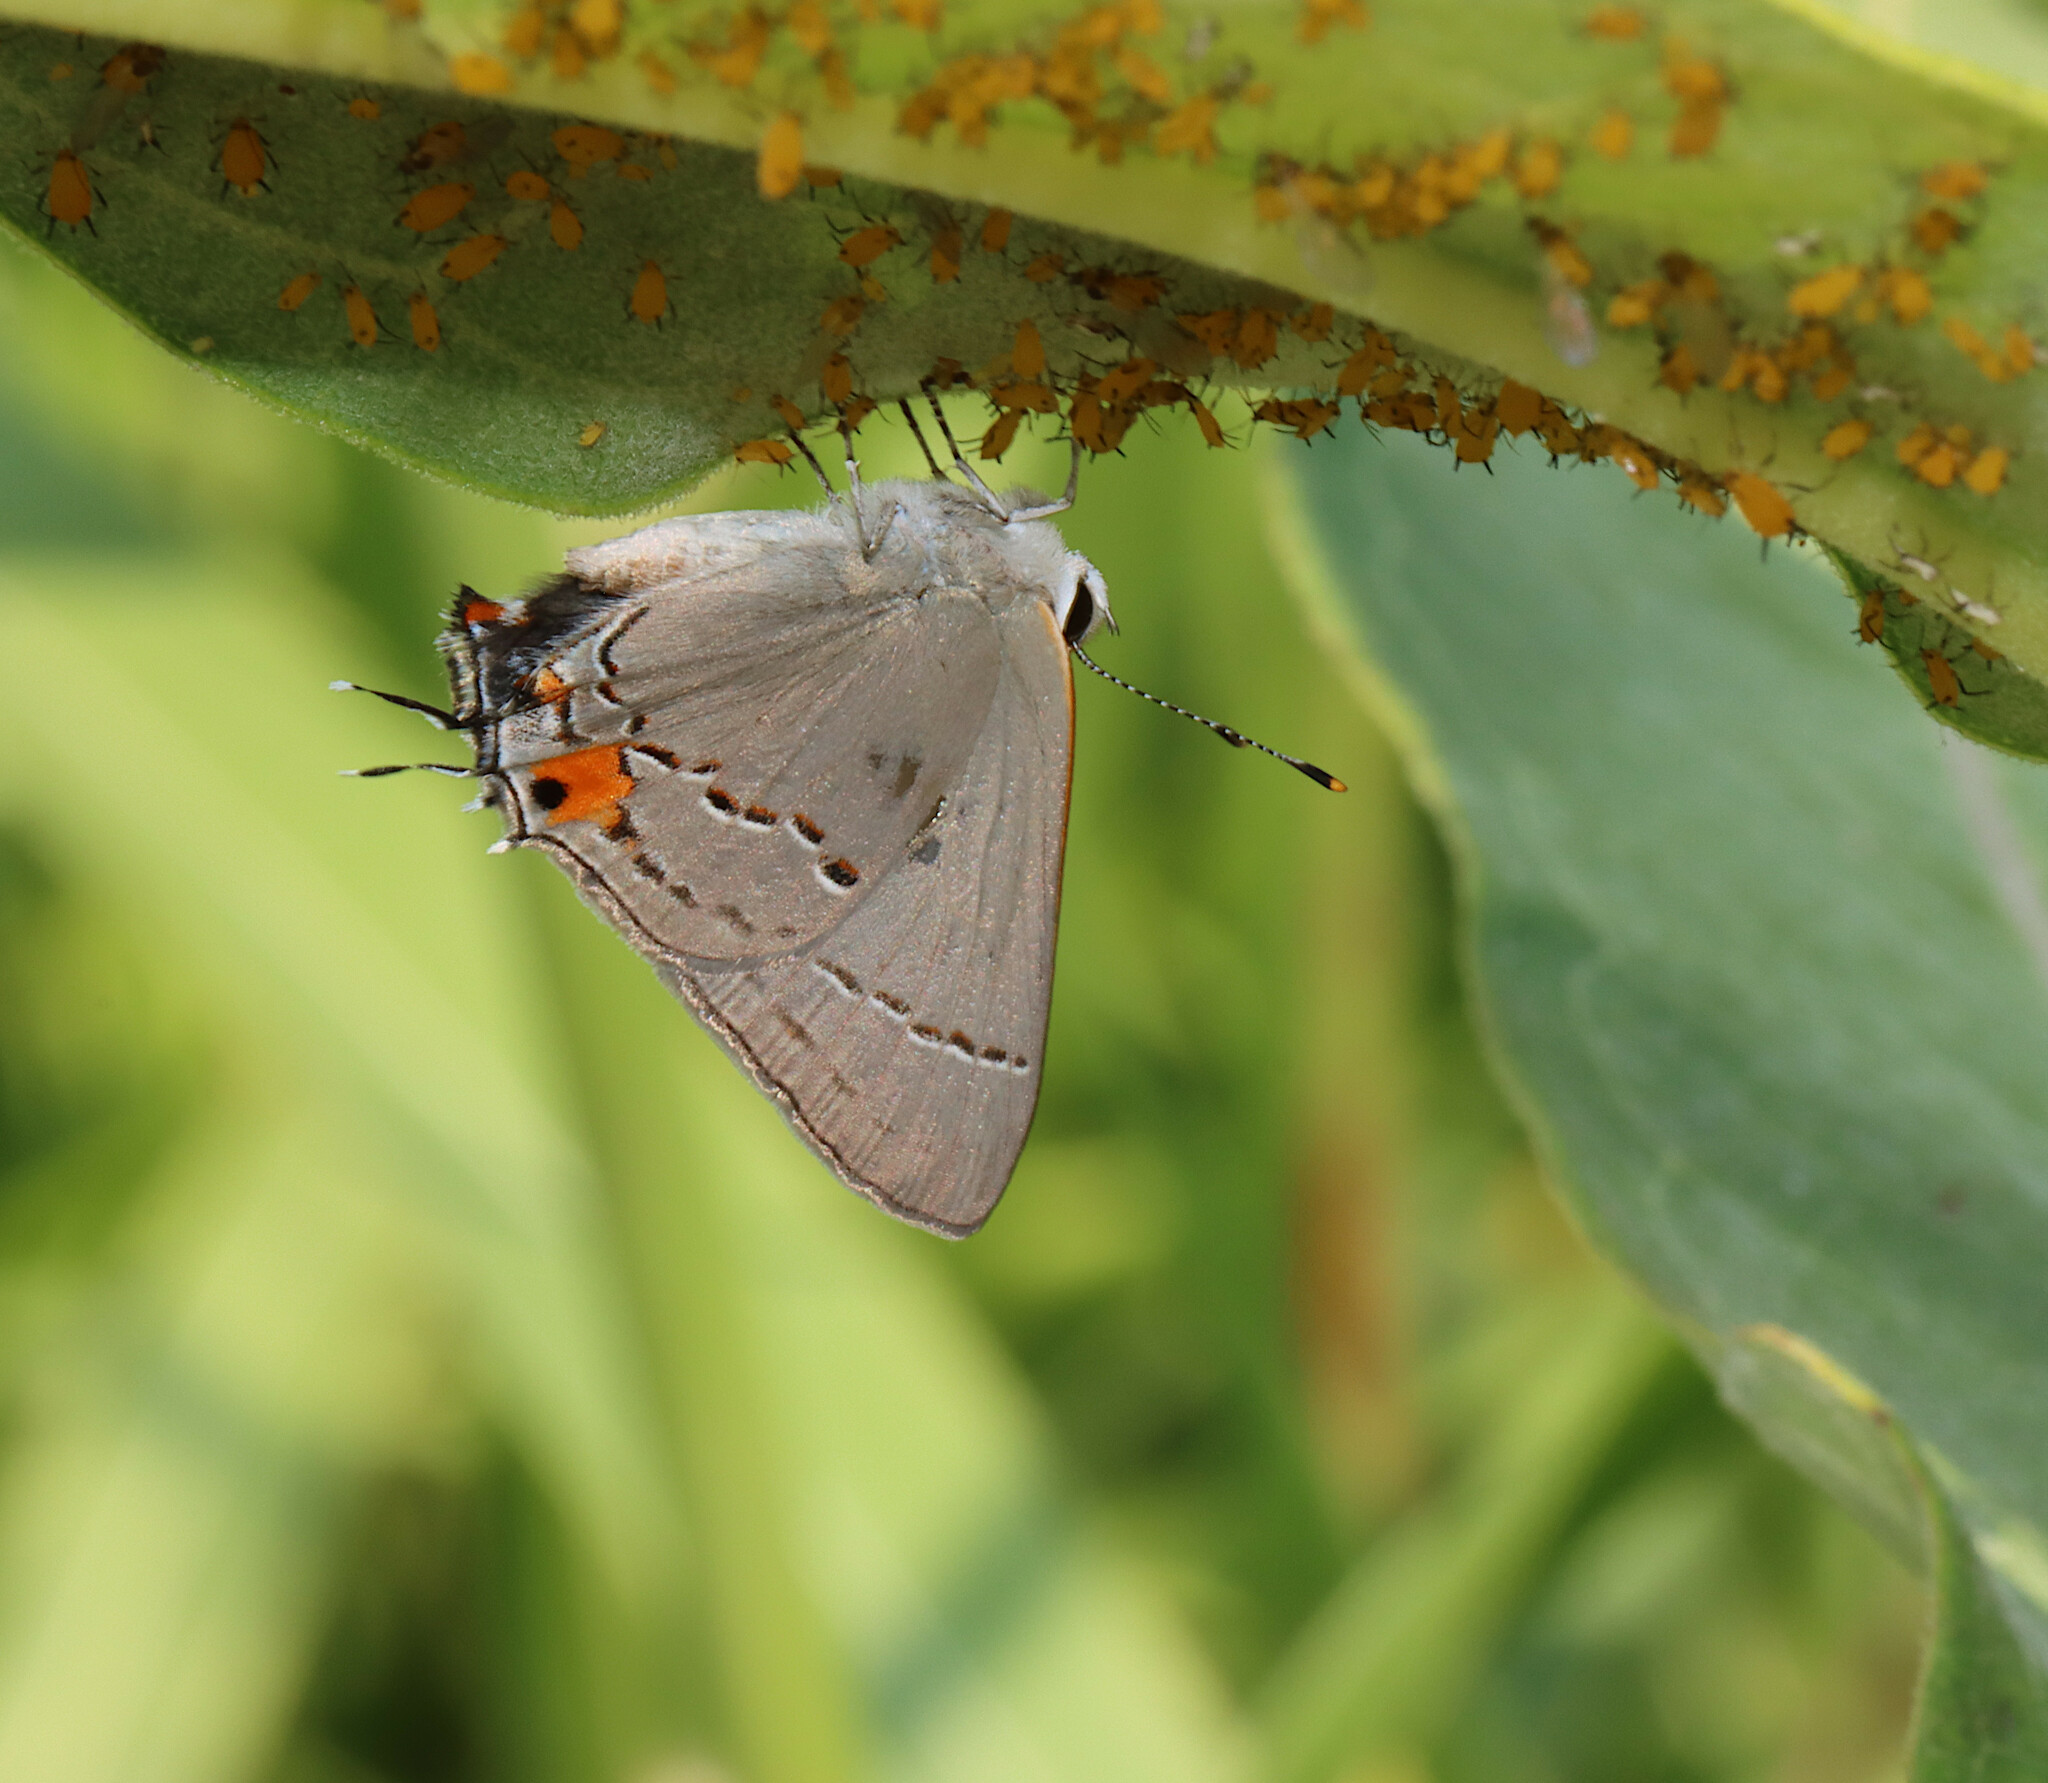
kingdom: Animalia
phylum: Arthropoda
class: Insecta
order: Lepidoptera
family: Lycaenidae
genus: Strymon
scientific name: Strymon melinus
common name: Gray hairstreak
